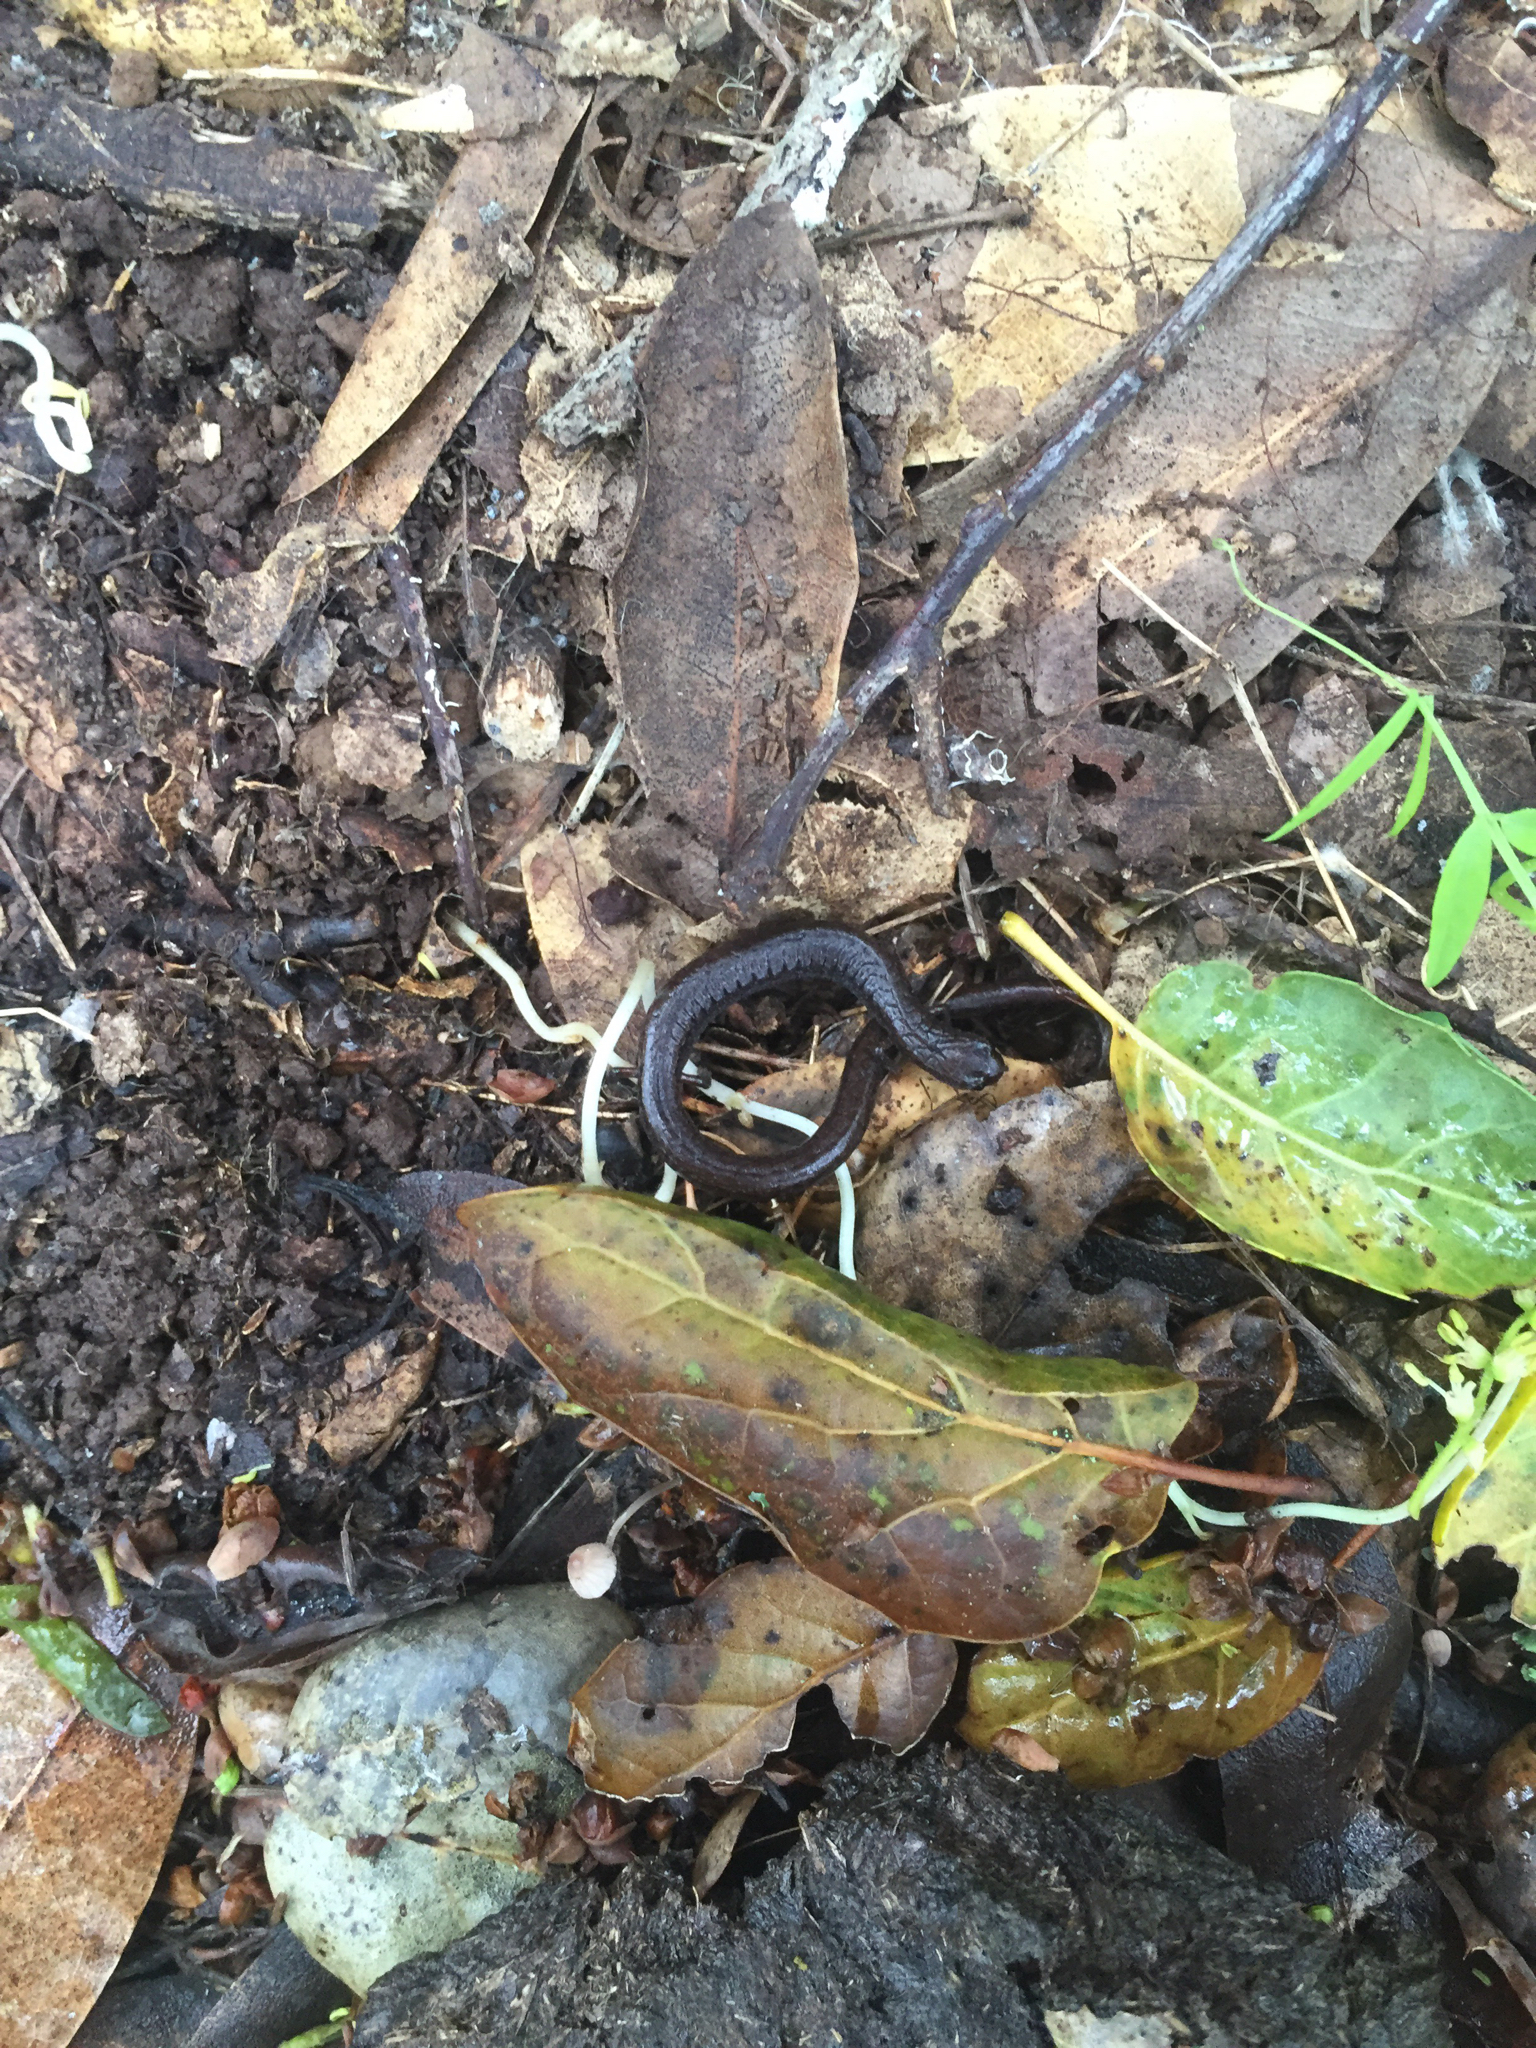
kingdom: Animalia
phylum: Chordata
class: Amphibia
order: Caudata
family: Plethodontidae
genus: Batrachoseps
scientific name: Batrachoseps attenuatus
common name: California slender salamander
